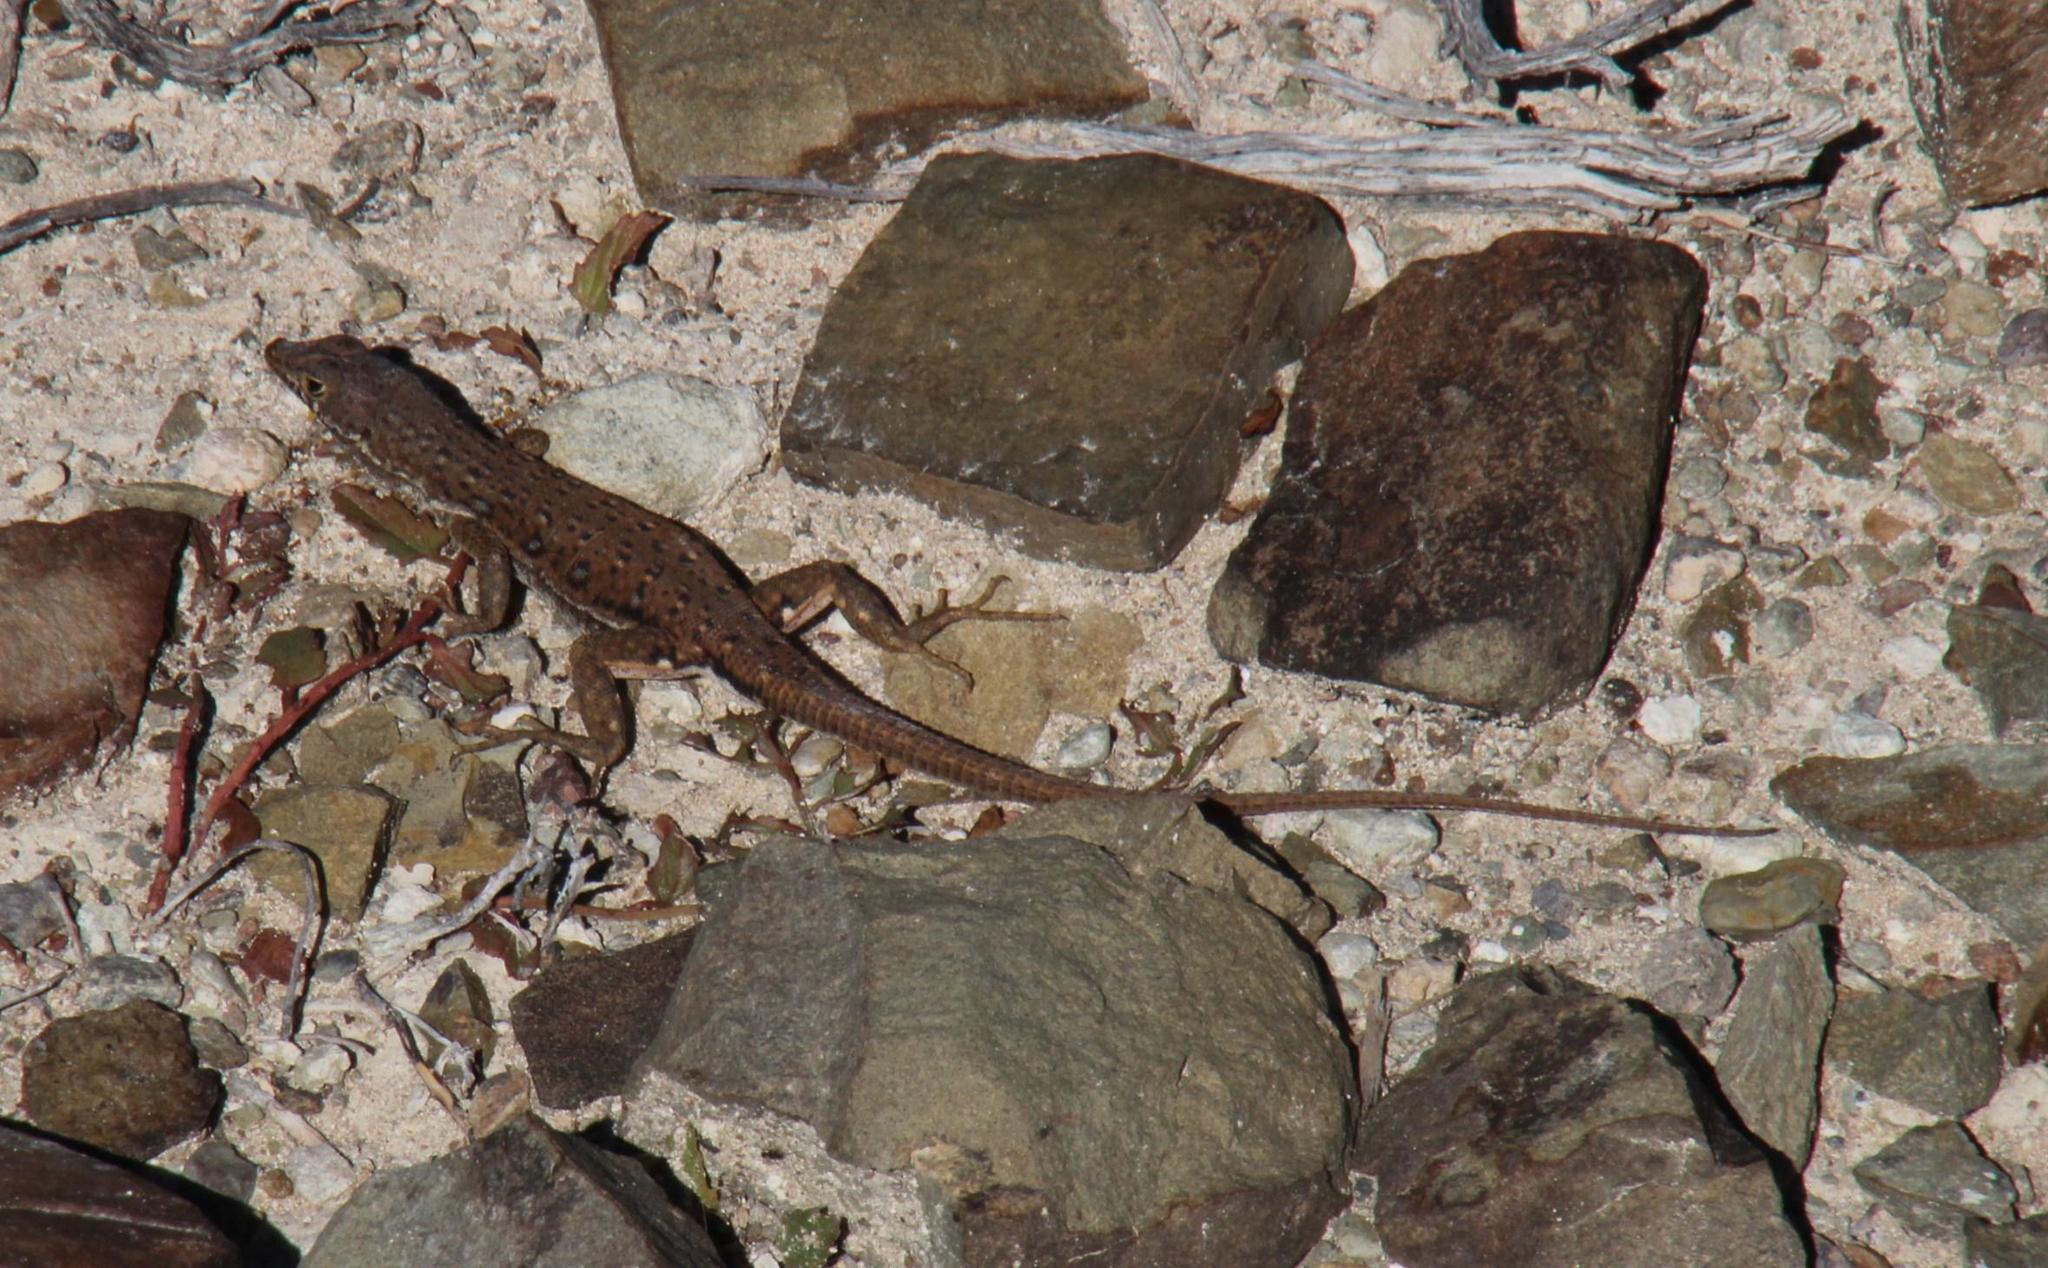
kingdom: Animalia
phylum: Chordata
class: Squamata
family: Lacertidae
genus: Pedioplanis
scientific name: Pedioplanis lineoocellata
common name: Spotted sand lizard
